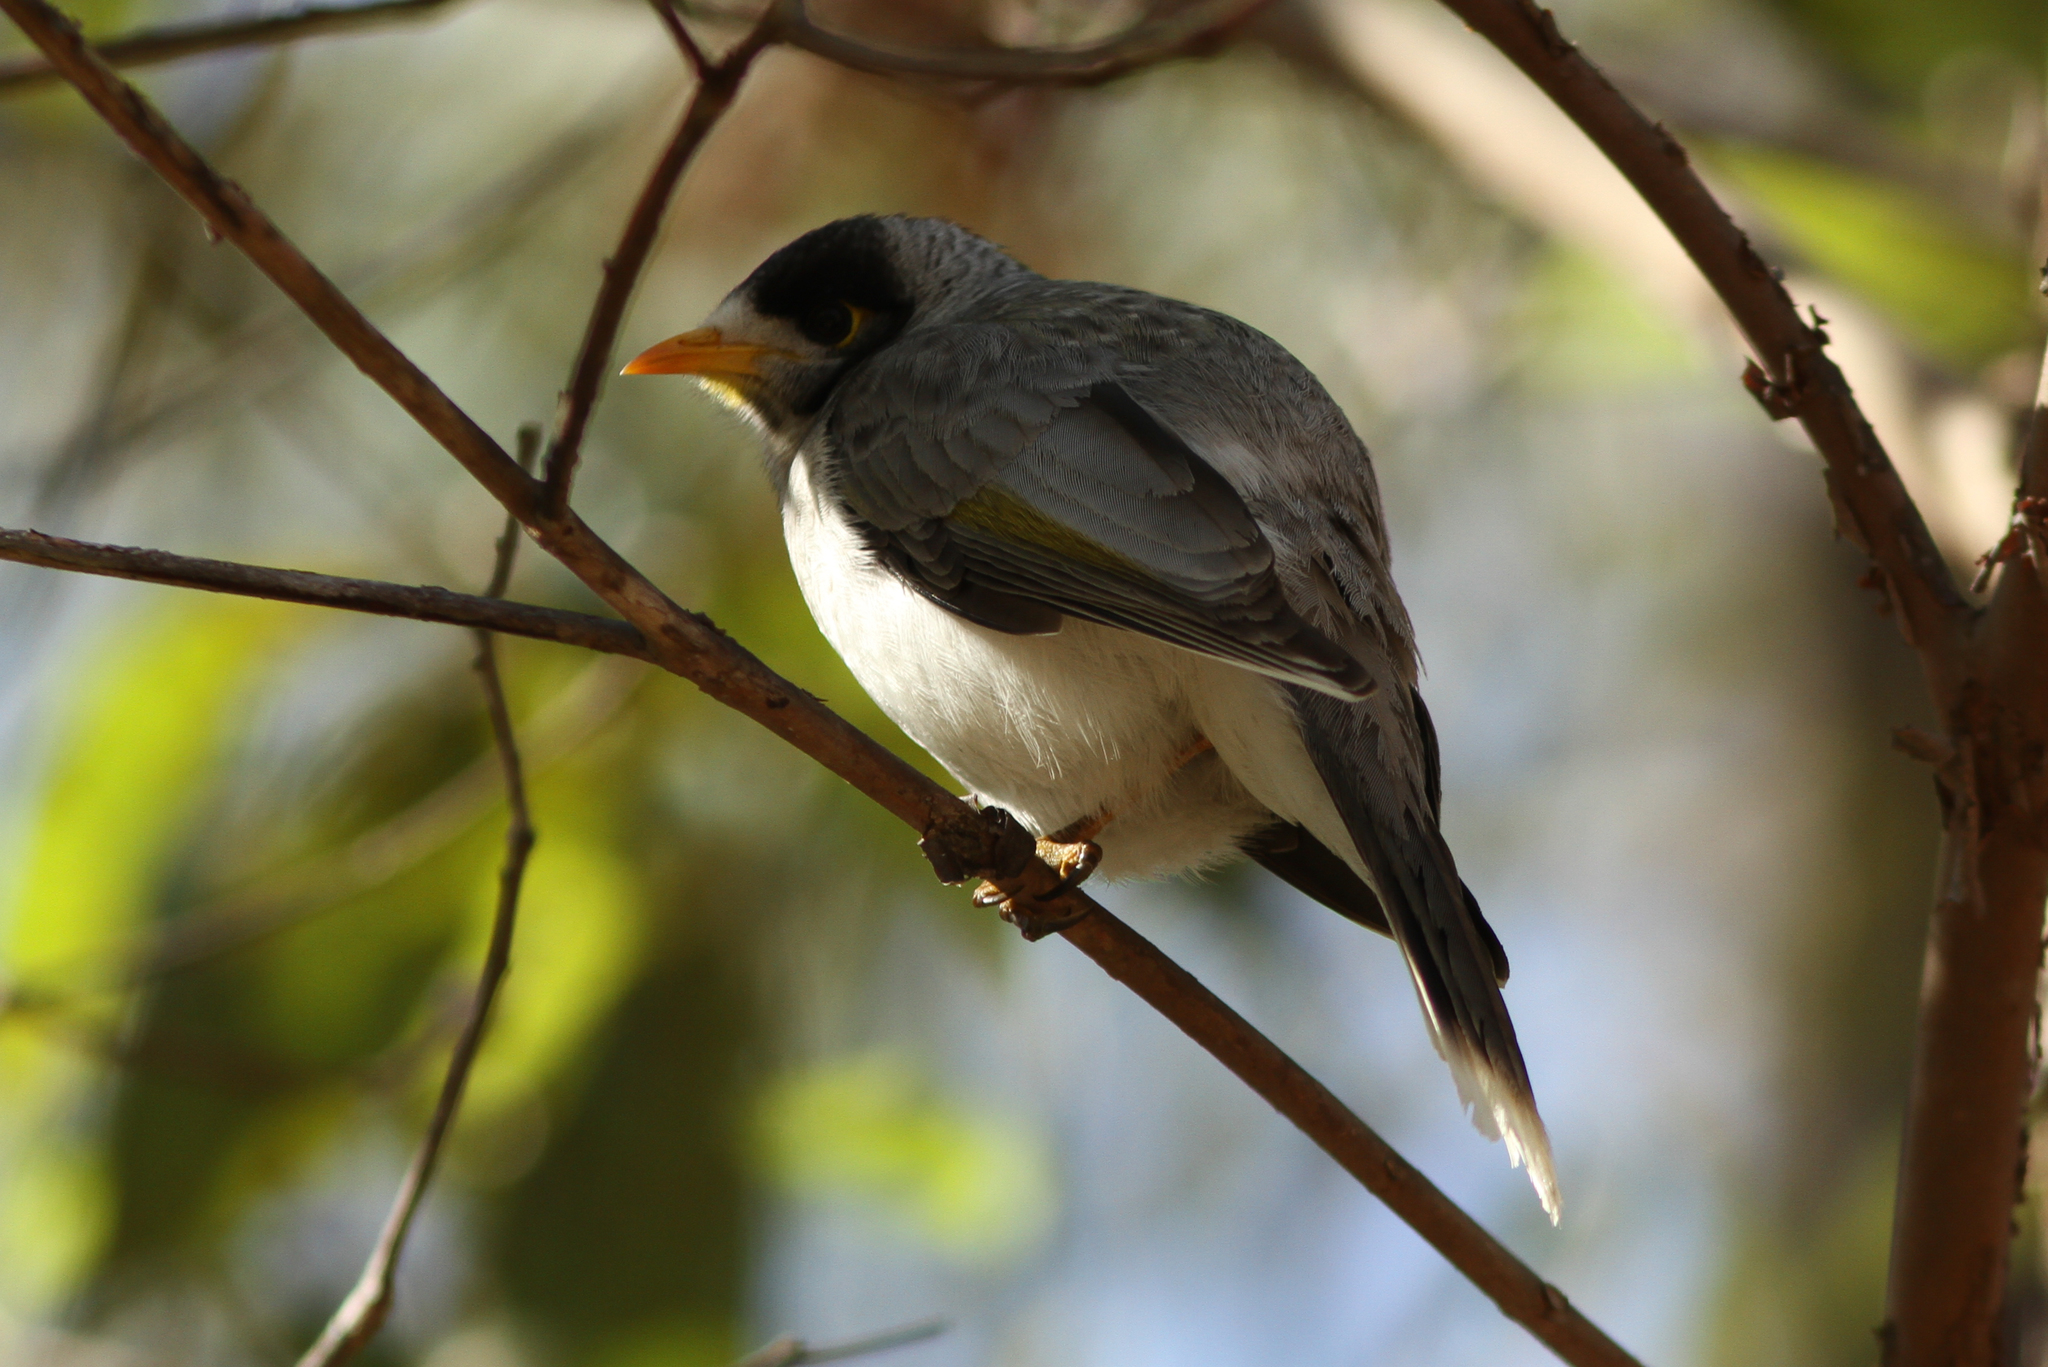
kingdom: Animalia
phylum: Chordata
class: Aves
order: Passeriformes
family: Meliphagidae
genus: Manorina
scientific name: Manorina melanocephala
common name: Noisy miner
